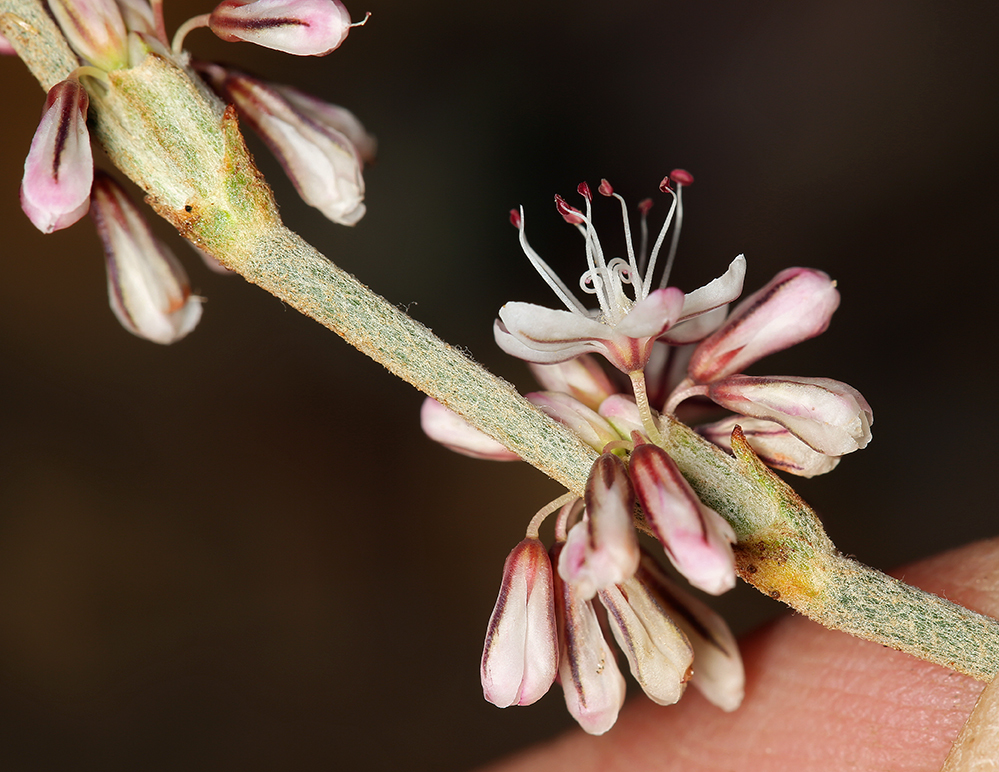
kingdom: Plantae
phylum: Tracheophyta
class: Magnoliopsida
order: Caryophyllales
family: Polygonaceae
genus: Eriogonum
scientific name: Eriogonum panamintense
